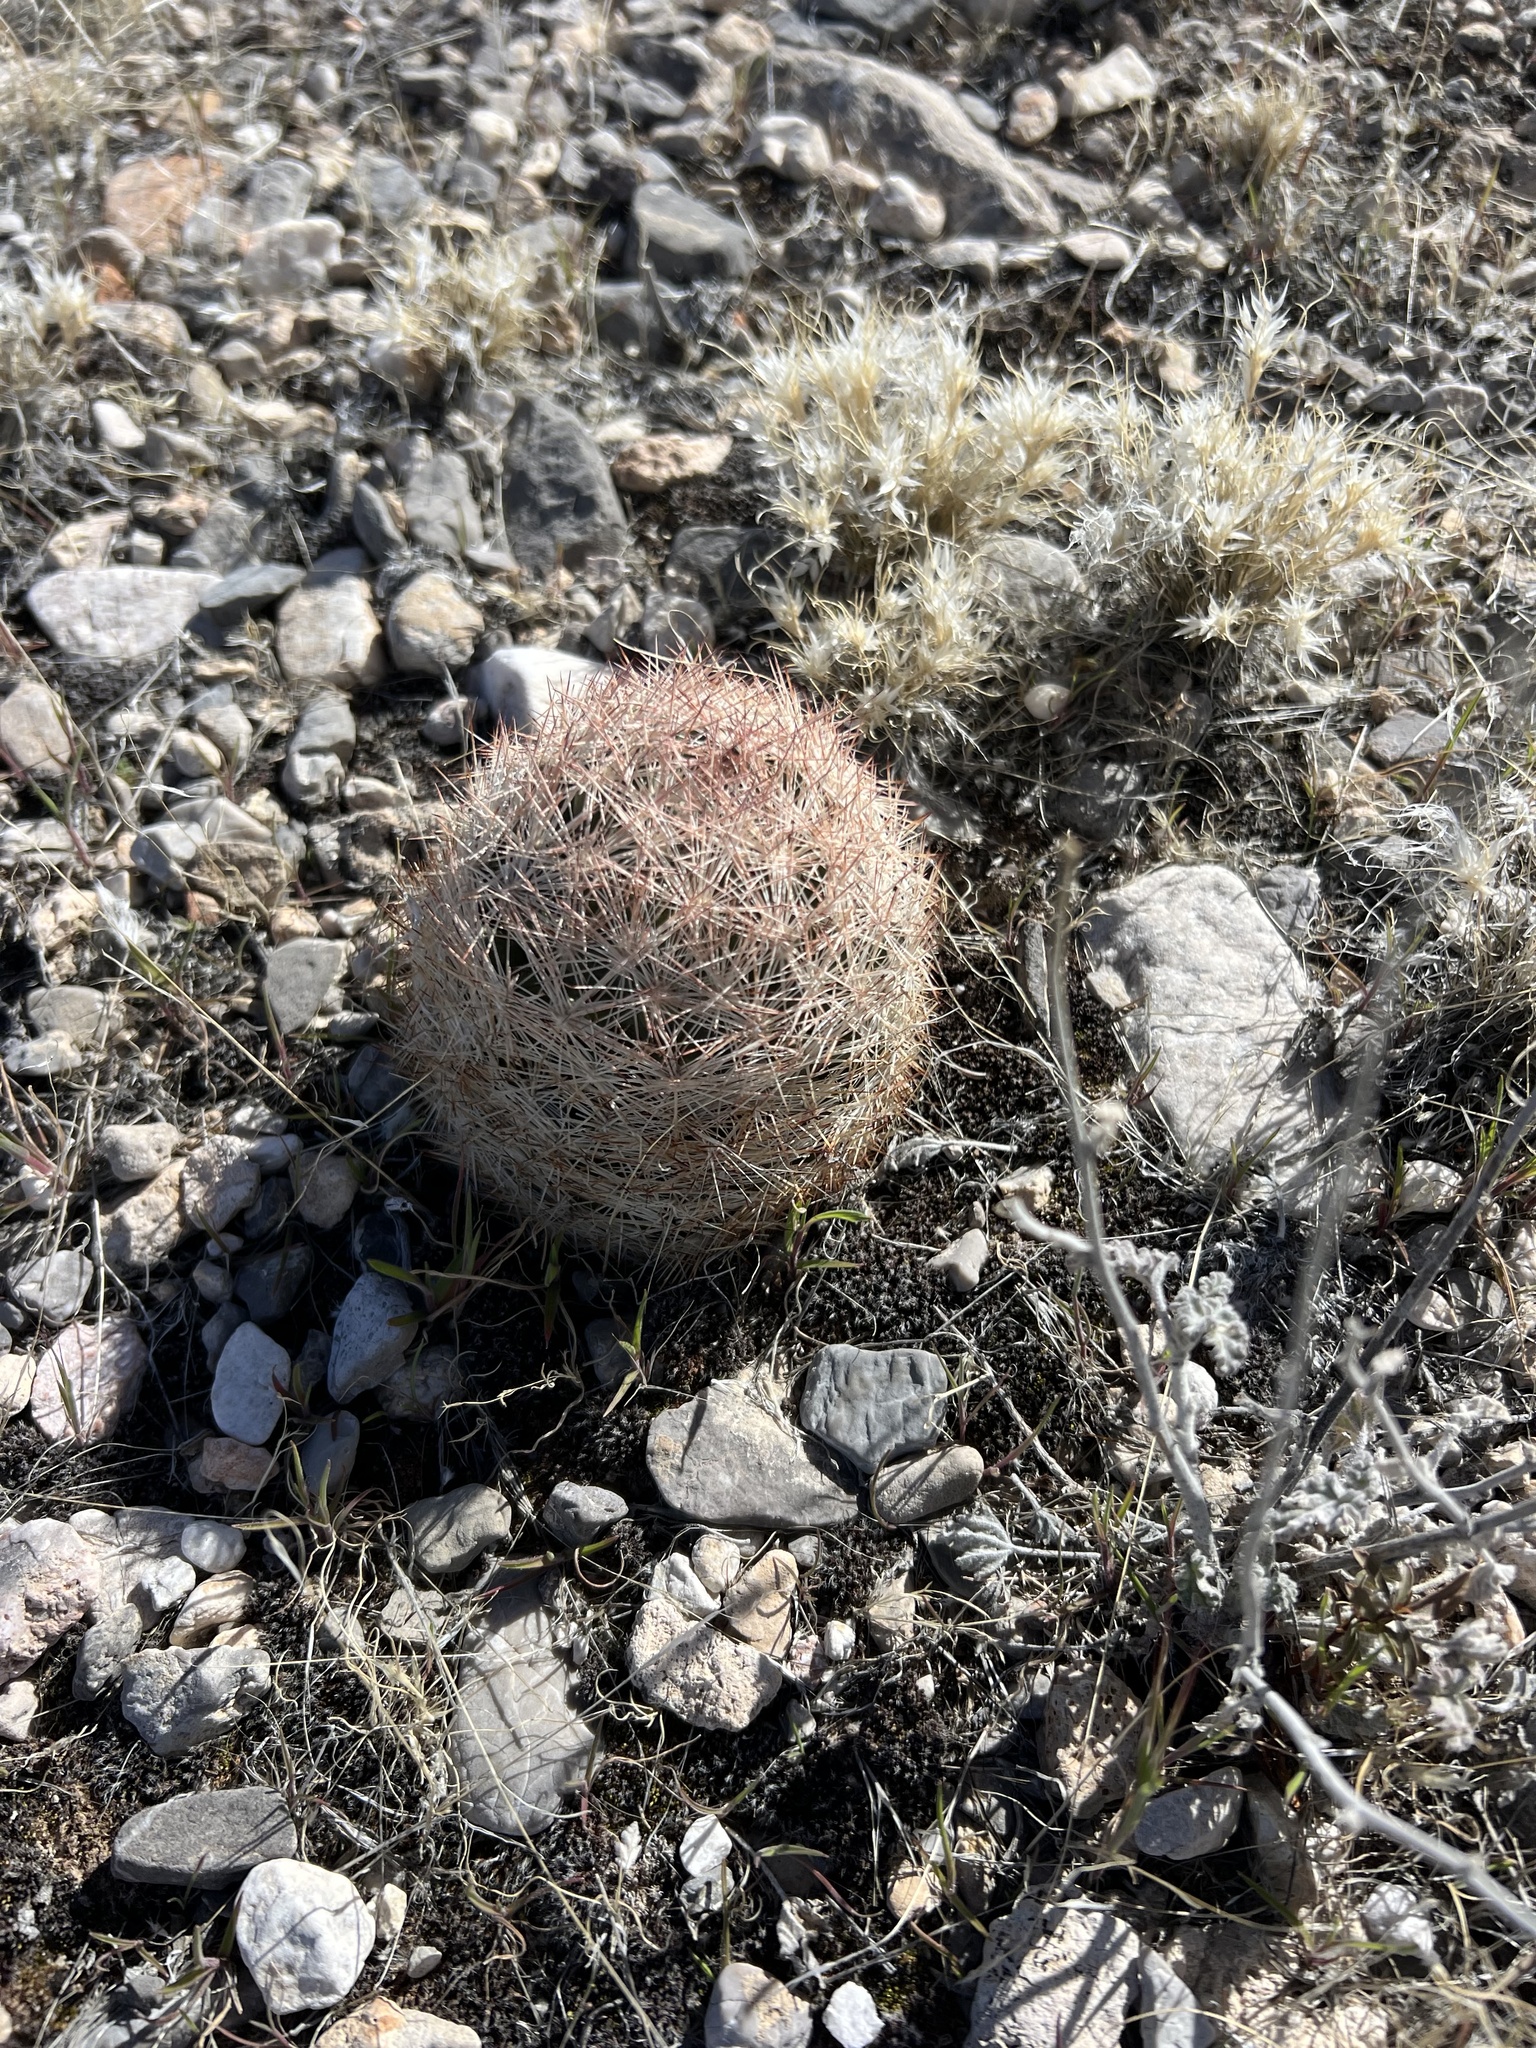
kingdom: Plantae
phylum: Tracheophyta
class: Magnoliopsida
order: Caryophyllales
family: Cactaceae
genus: Pelecyphora
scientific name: Pelecyphora dasyacantha
